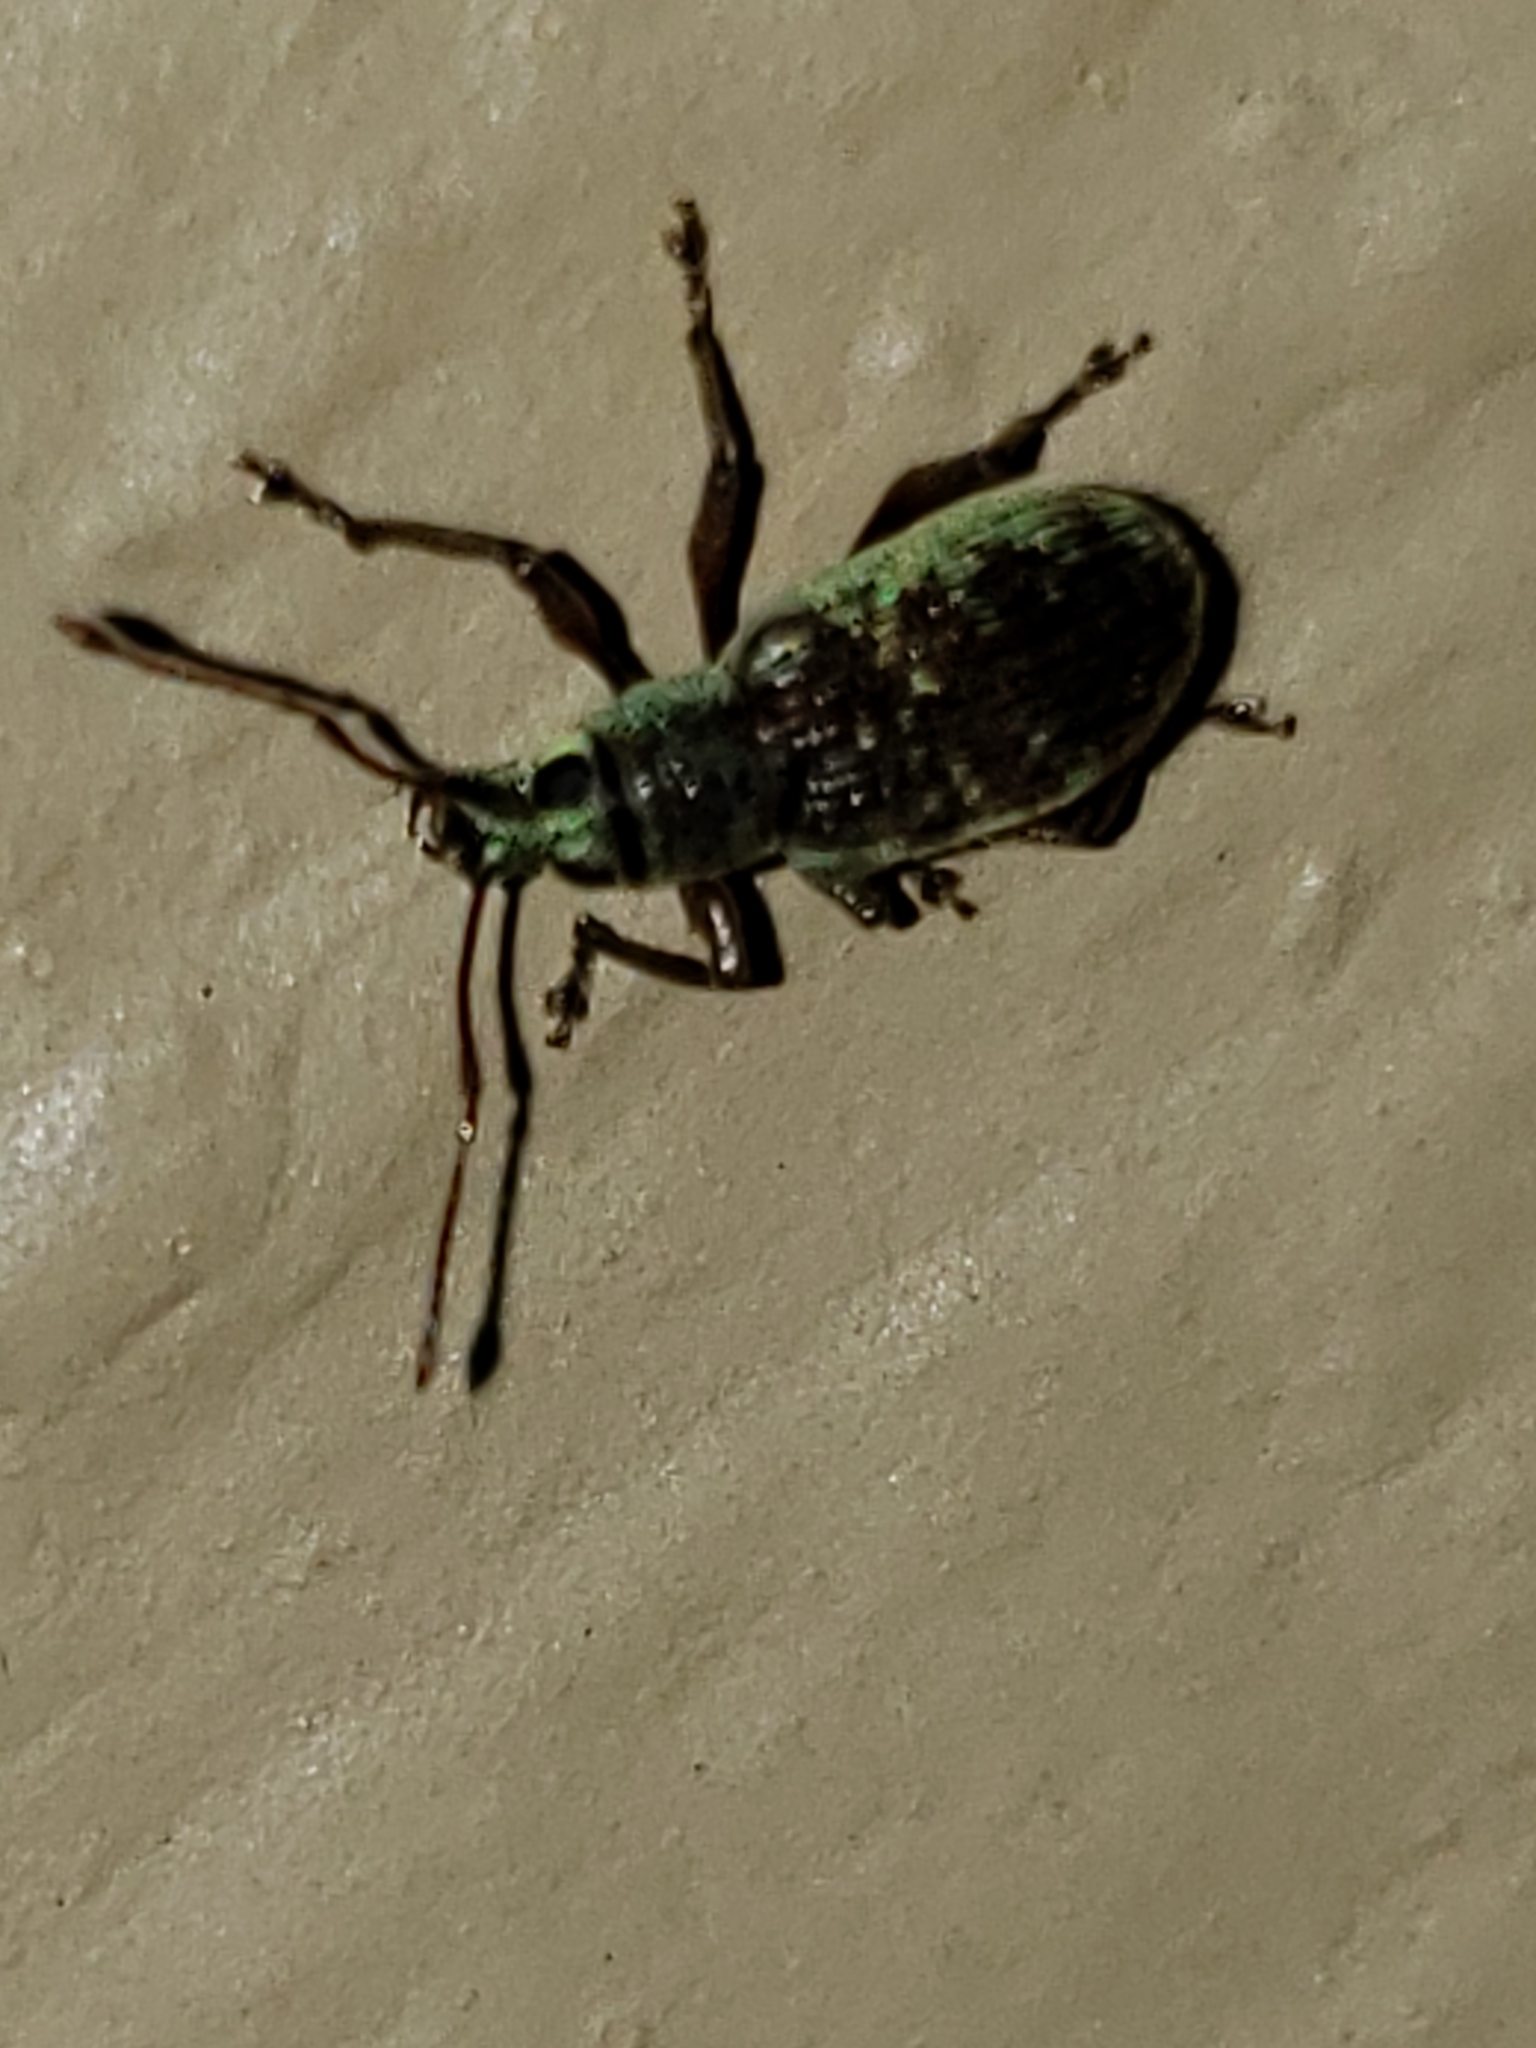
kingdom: Animalia
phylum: Arthropoda
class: Insecta
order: Coleoptera
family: Curculionidae
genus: Cyrtepistomus
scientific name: Cyrtepistomus castaneus
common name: Weevil
